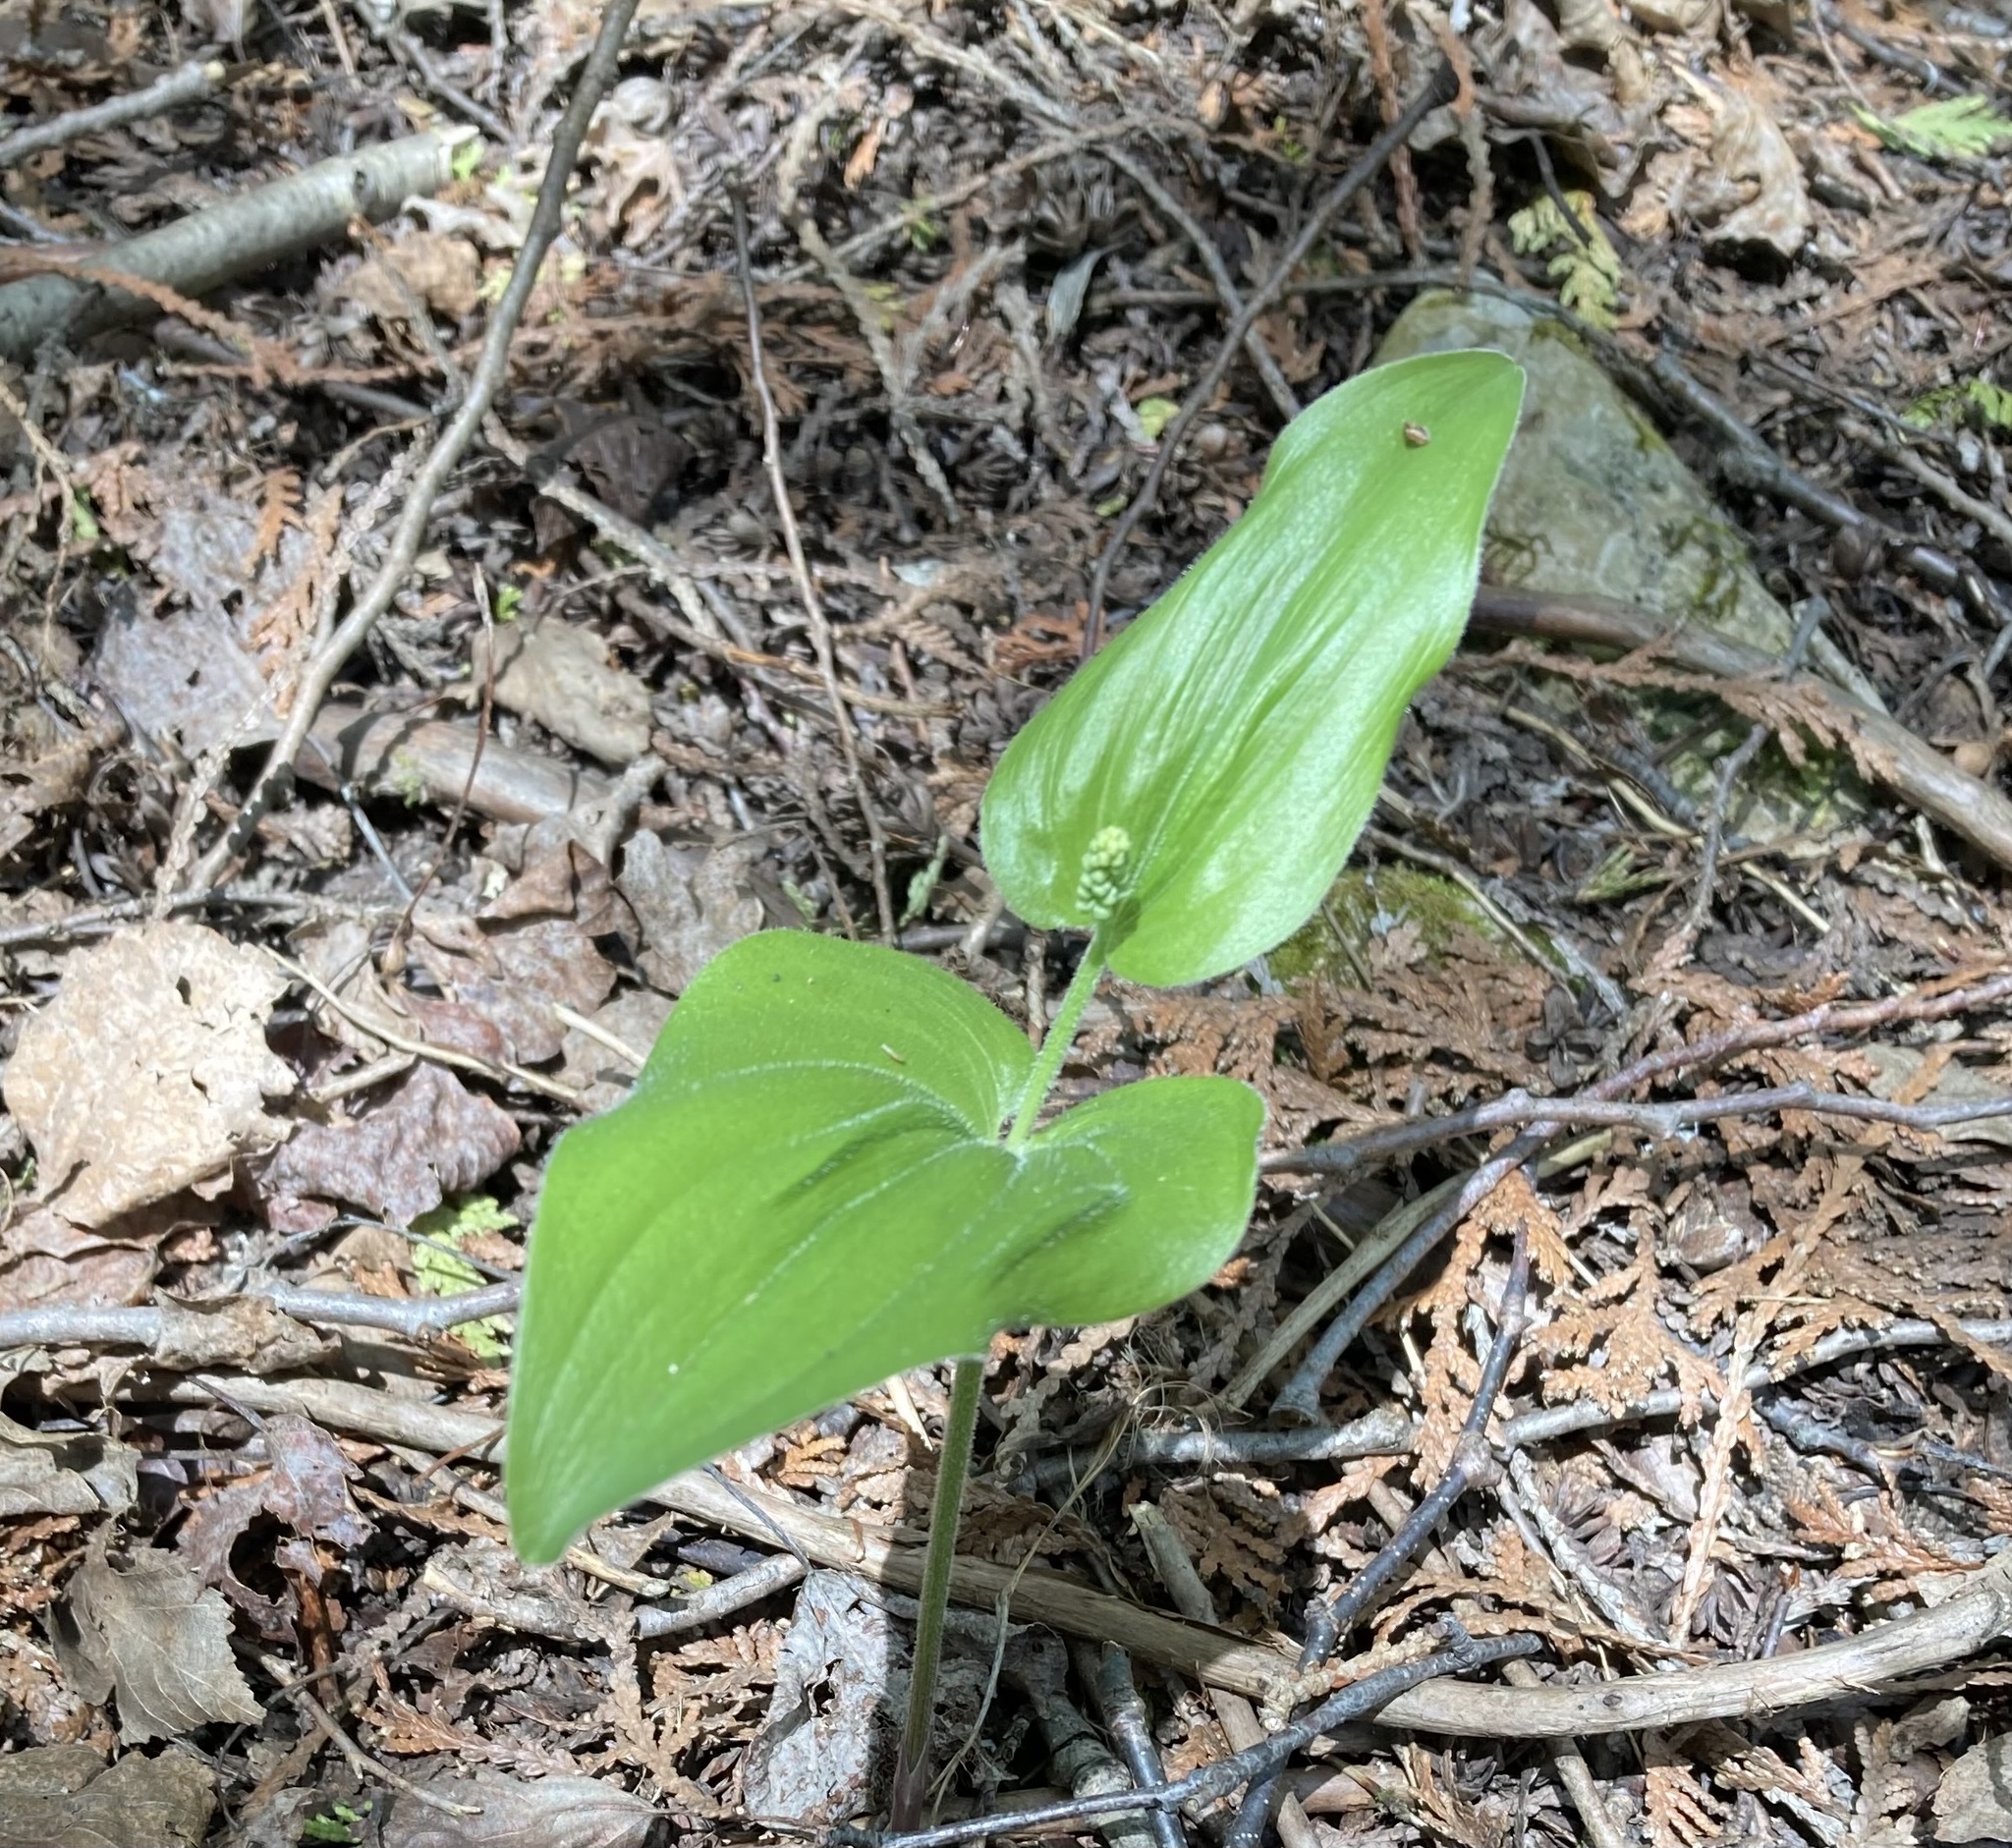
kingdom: Plantae
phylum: Tracheophyta
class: Liliopsida
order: Asparagales
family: Asparagaceae
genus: Maianthemum
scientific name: Maianthemum canadense
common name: False lily-of-the-valley
